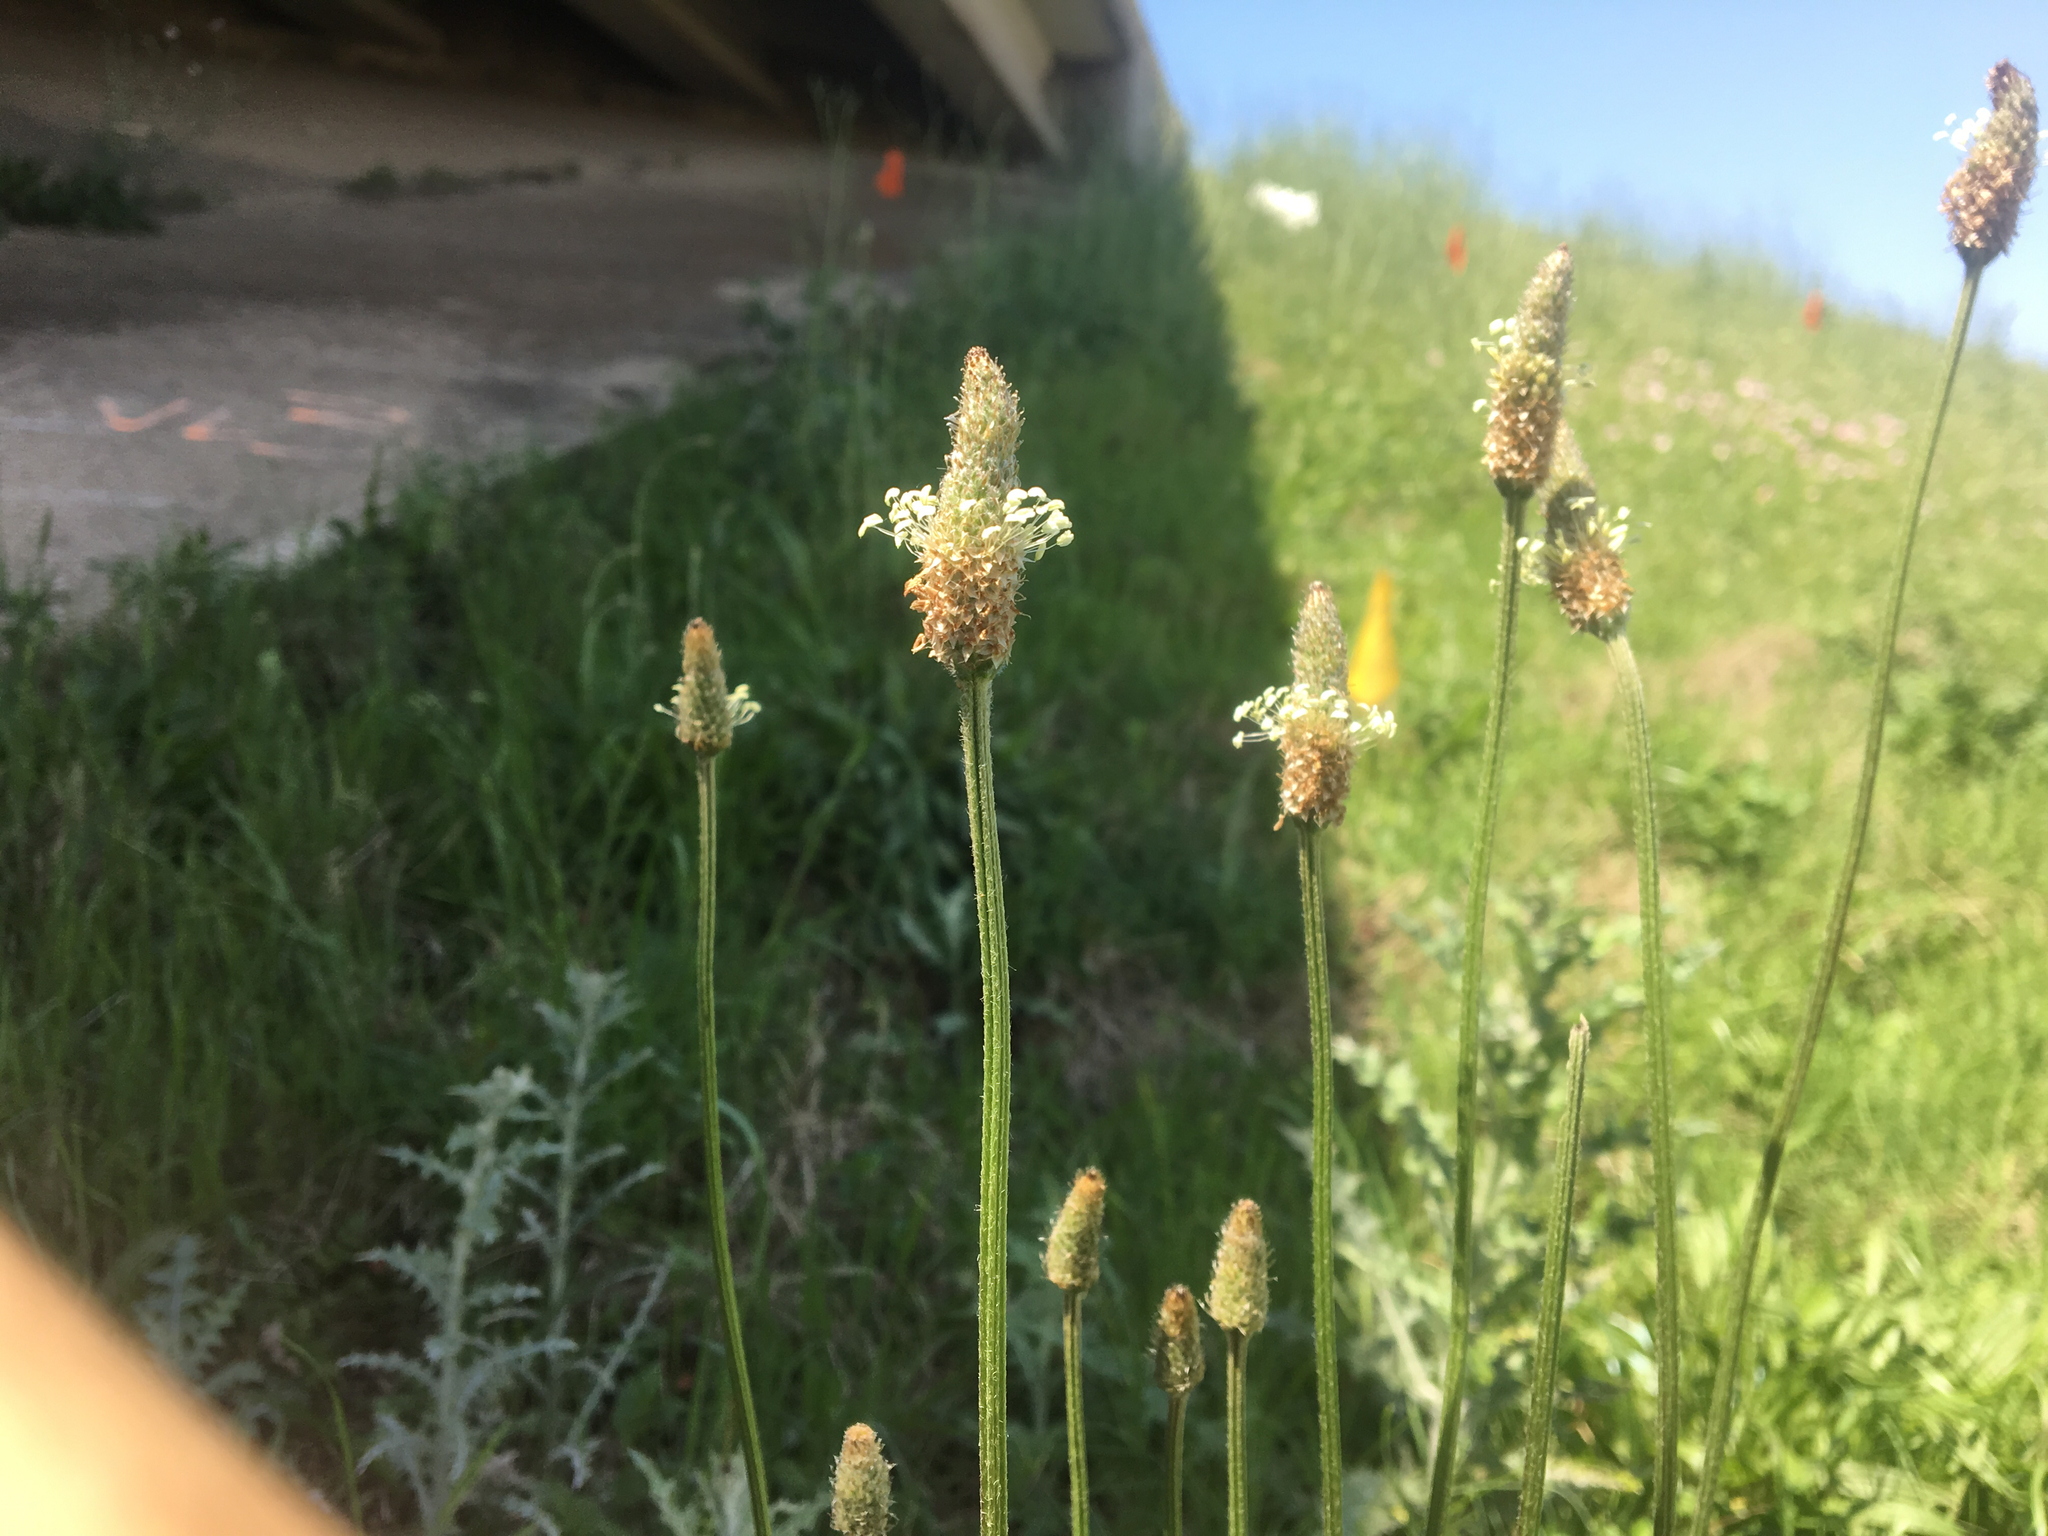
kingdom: Plantae
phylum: Tracheophyta
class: Magnoliopsida
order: Lamiales
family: Plantaginaceae
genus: Plantago
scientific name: Plantago lanceolata
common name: Ribwort plantain
